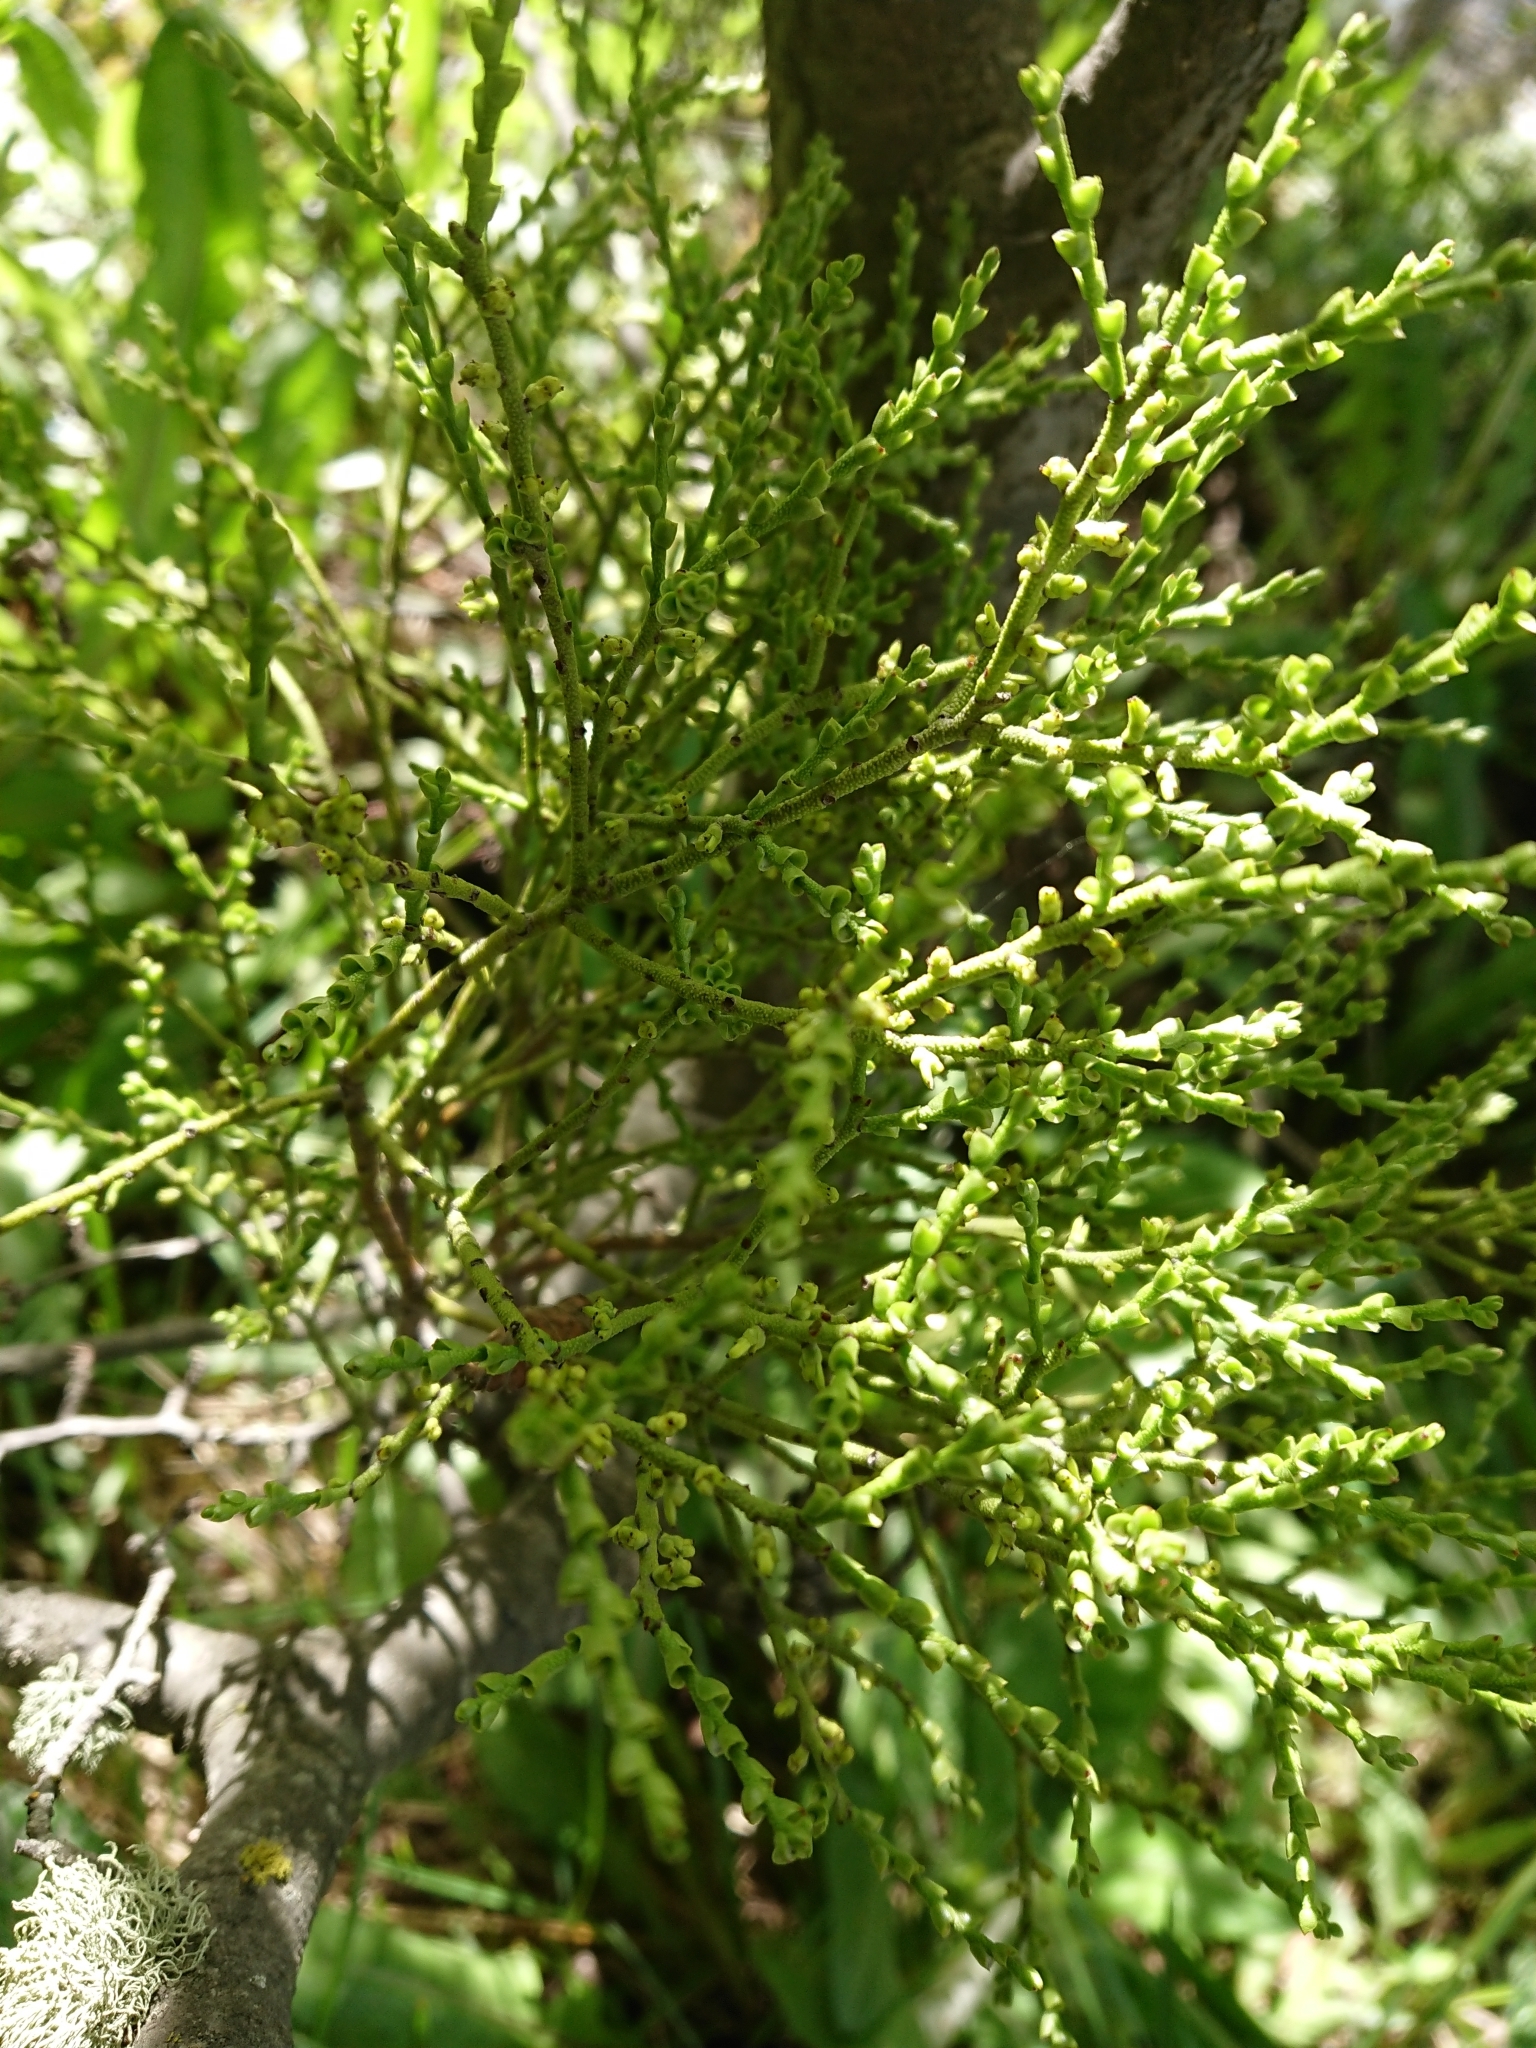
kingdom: Plantae
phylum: Tracheophyta
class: Magnoliopsida
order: Santalales
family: Misodendraceae
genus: Misodendrum
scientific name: Misodendrum punctulatum
